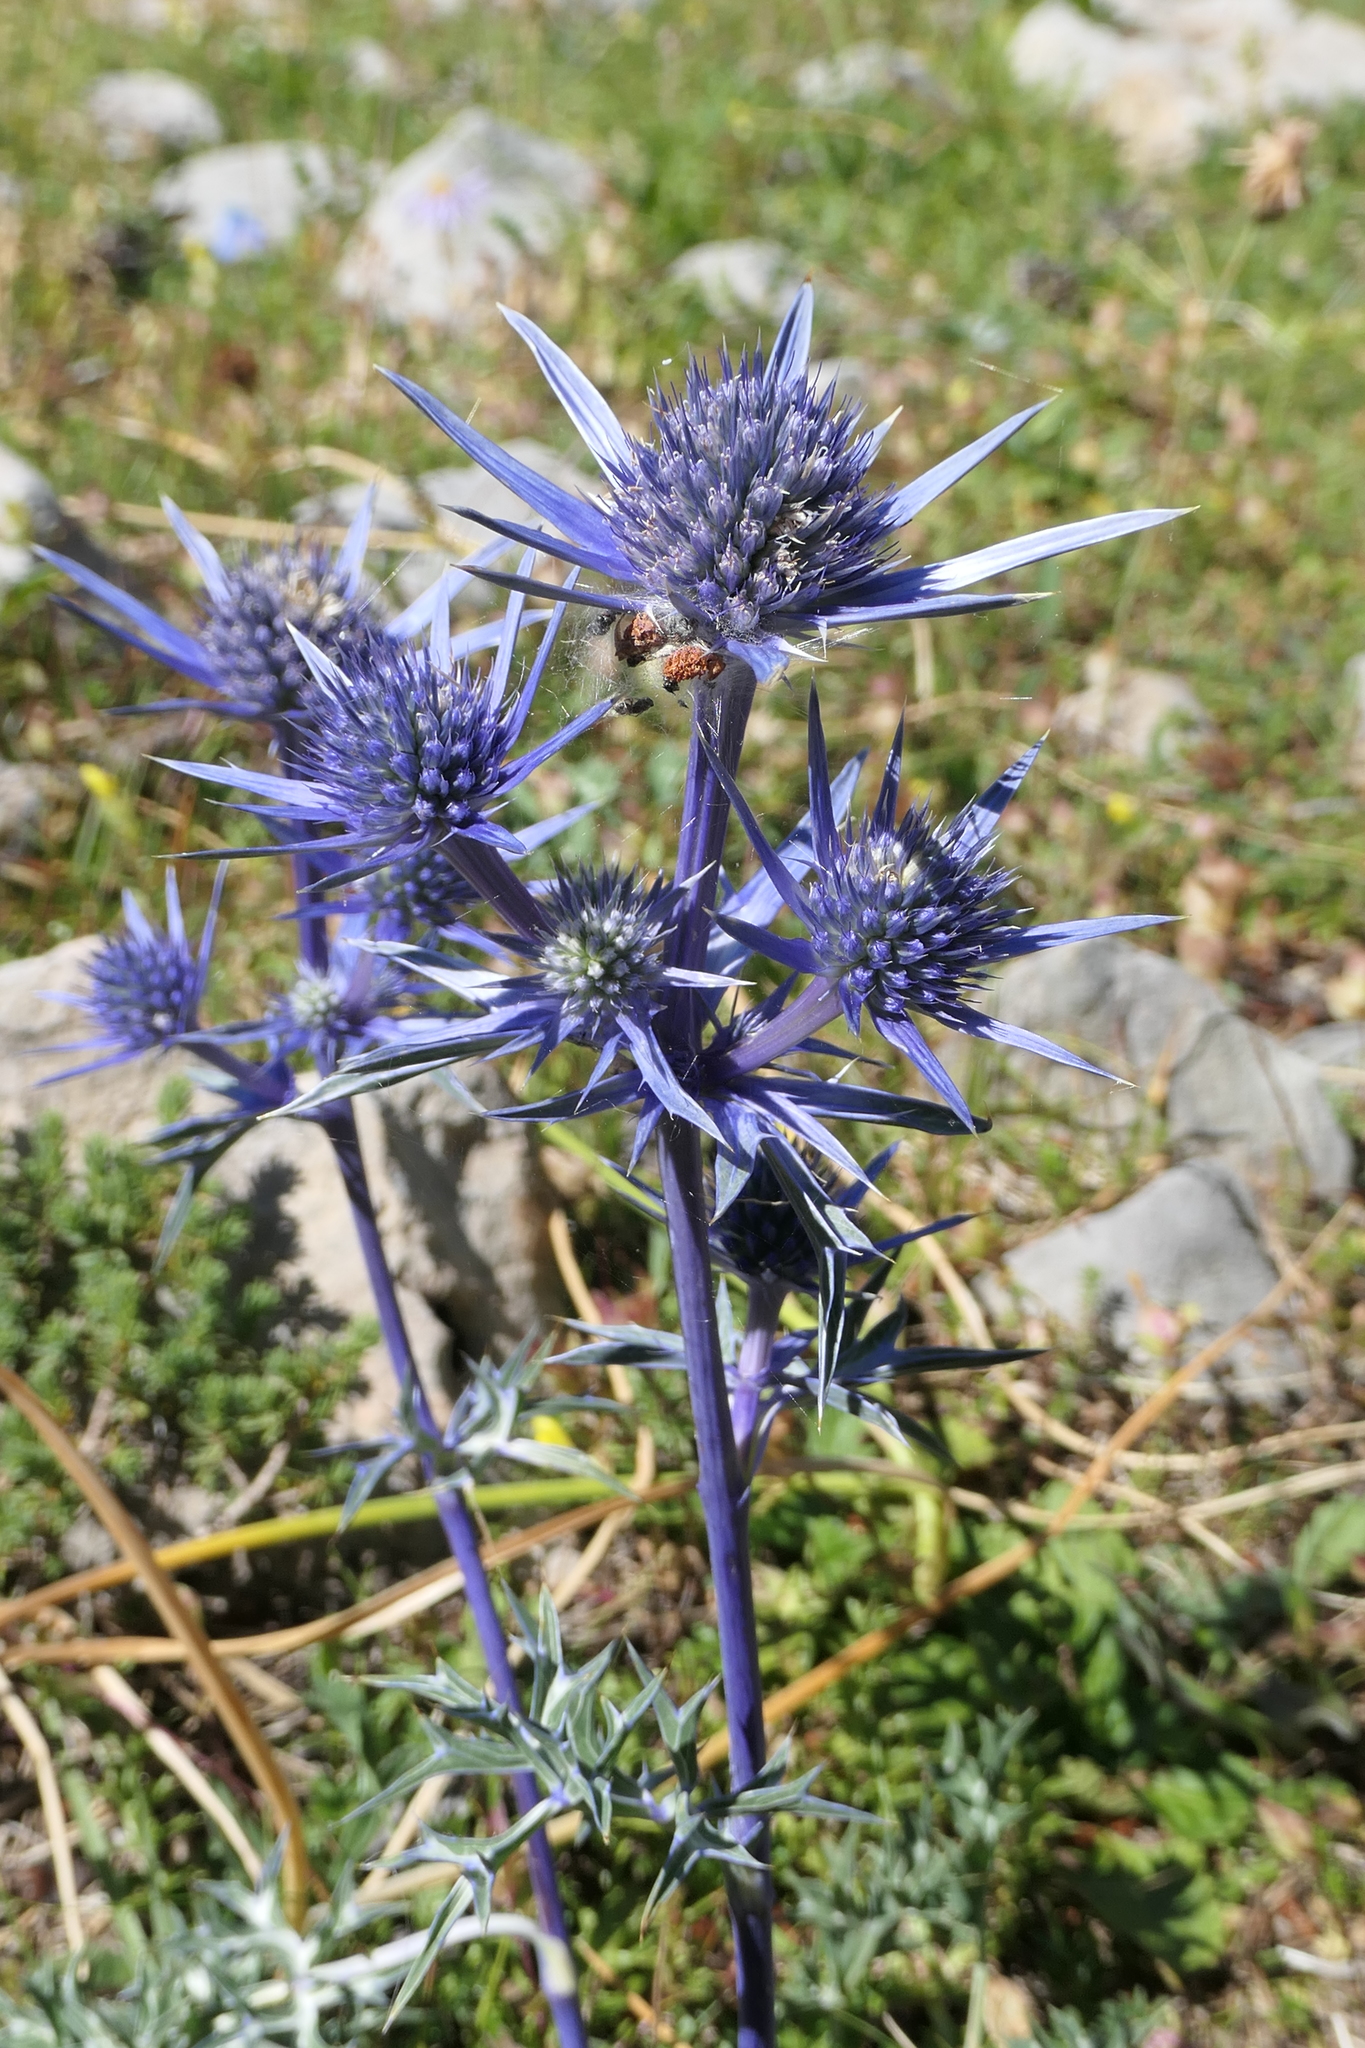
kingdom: Plantae
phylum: Tracheophyta
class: Magnoliopsida
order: Apiales
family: Apiaceae
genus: Eryngium
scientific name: Eryngium bourgatii
